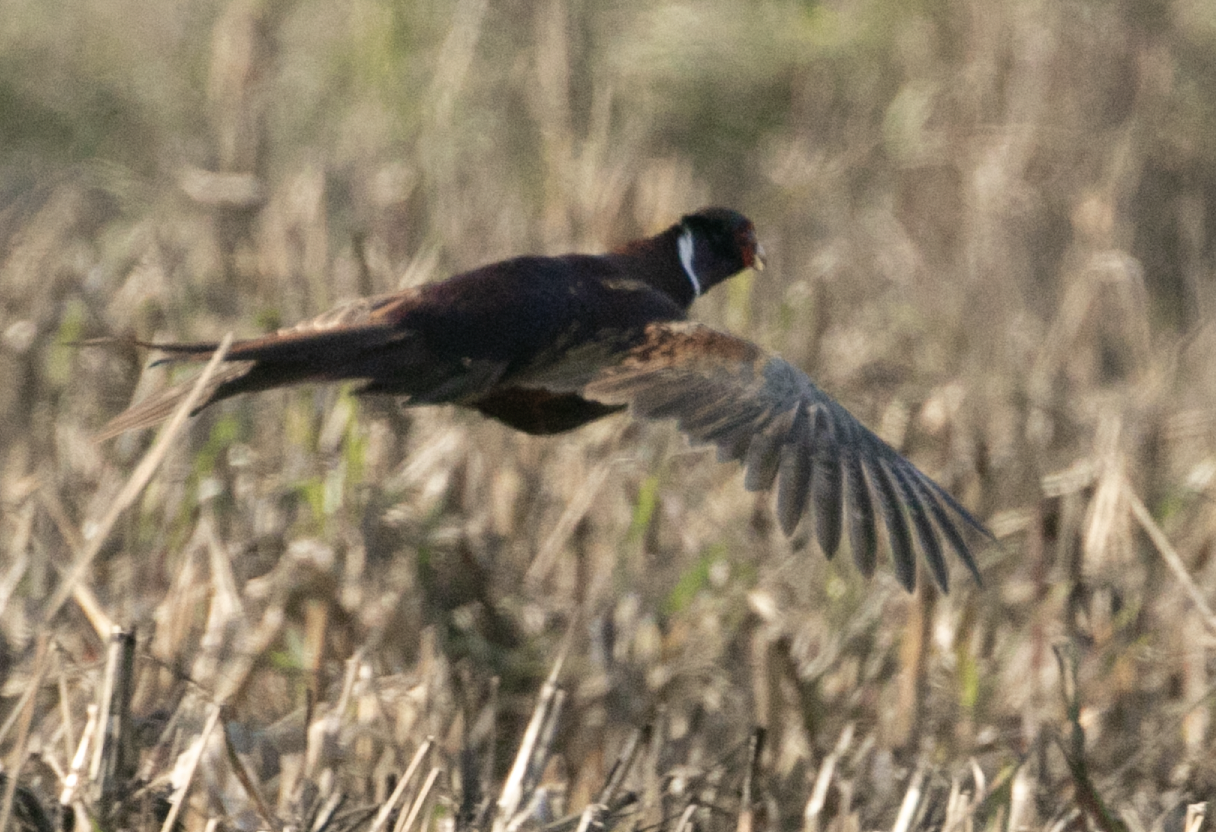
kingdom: Animalia
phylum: Chordata
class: Aves
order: Galliformes
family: Phasianidae
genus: Phasianus
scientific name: Phasianus colchicus
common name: Common pheasant
